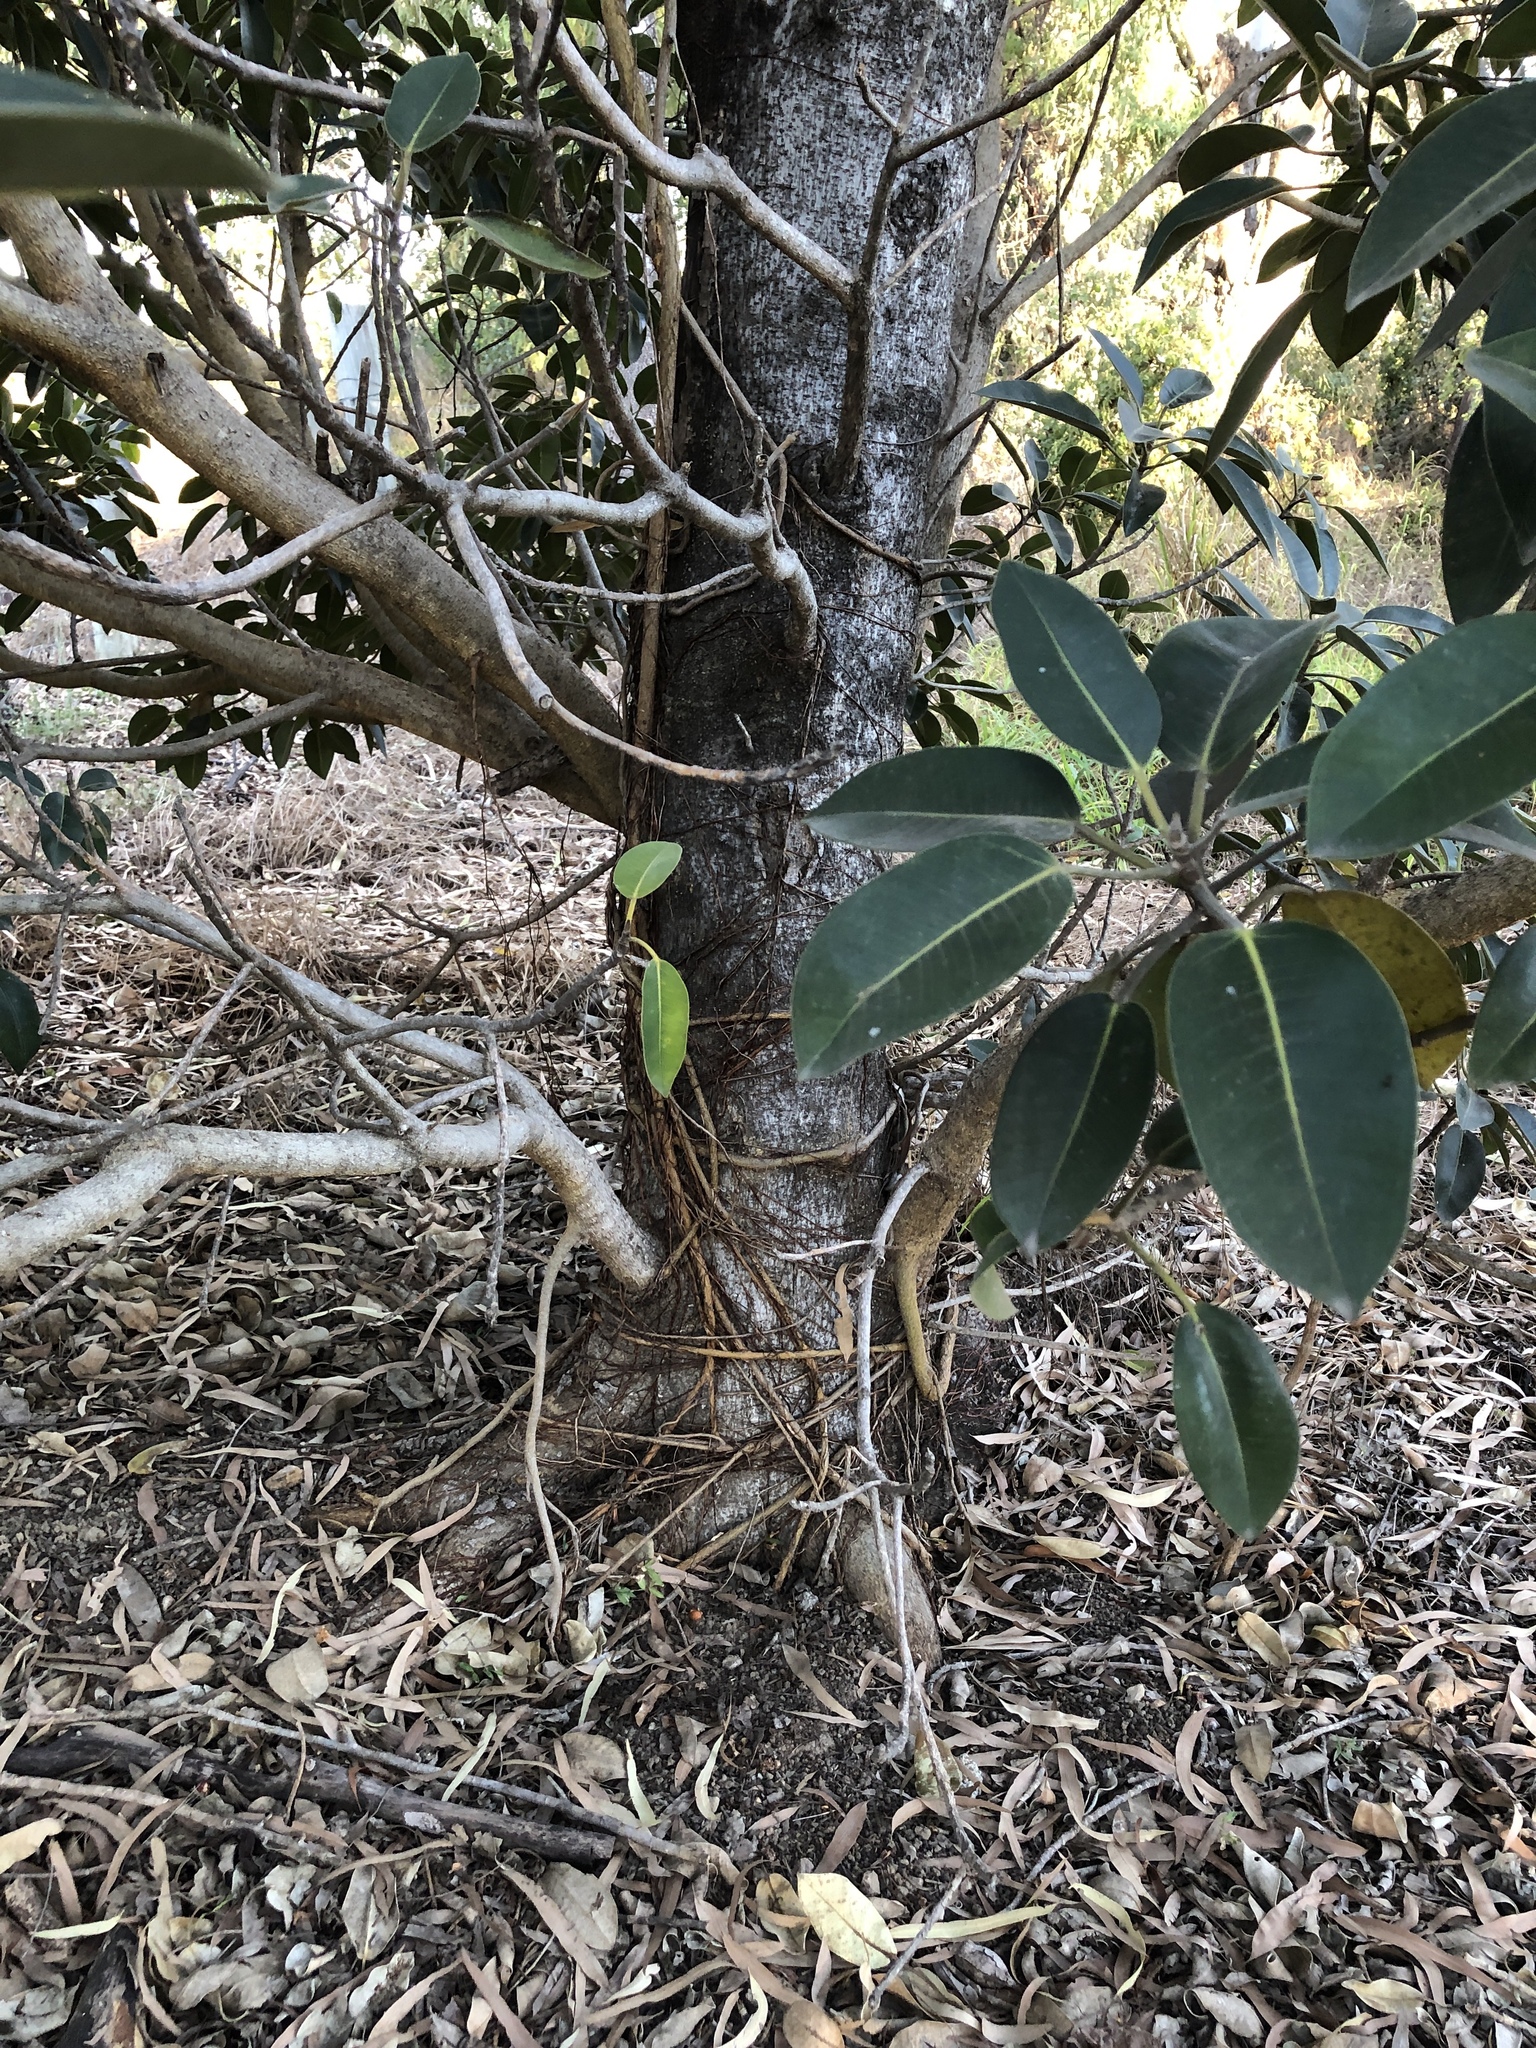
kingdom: Plantae
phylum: Tracheophyta
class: Magnoliopsida
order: Rosales
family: Moraceae
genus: Ficus
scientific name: Ficus rubiginosa
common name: Port jackson fig
